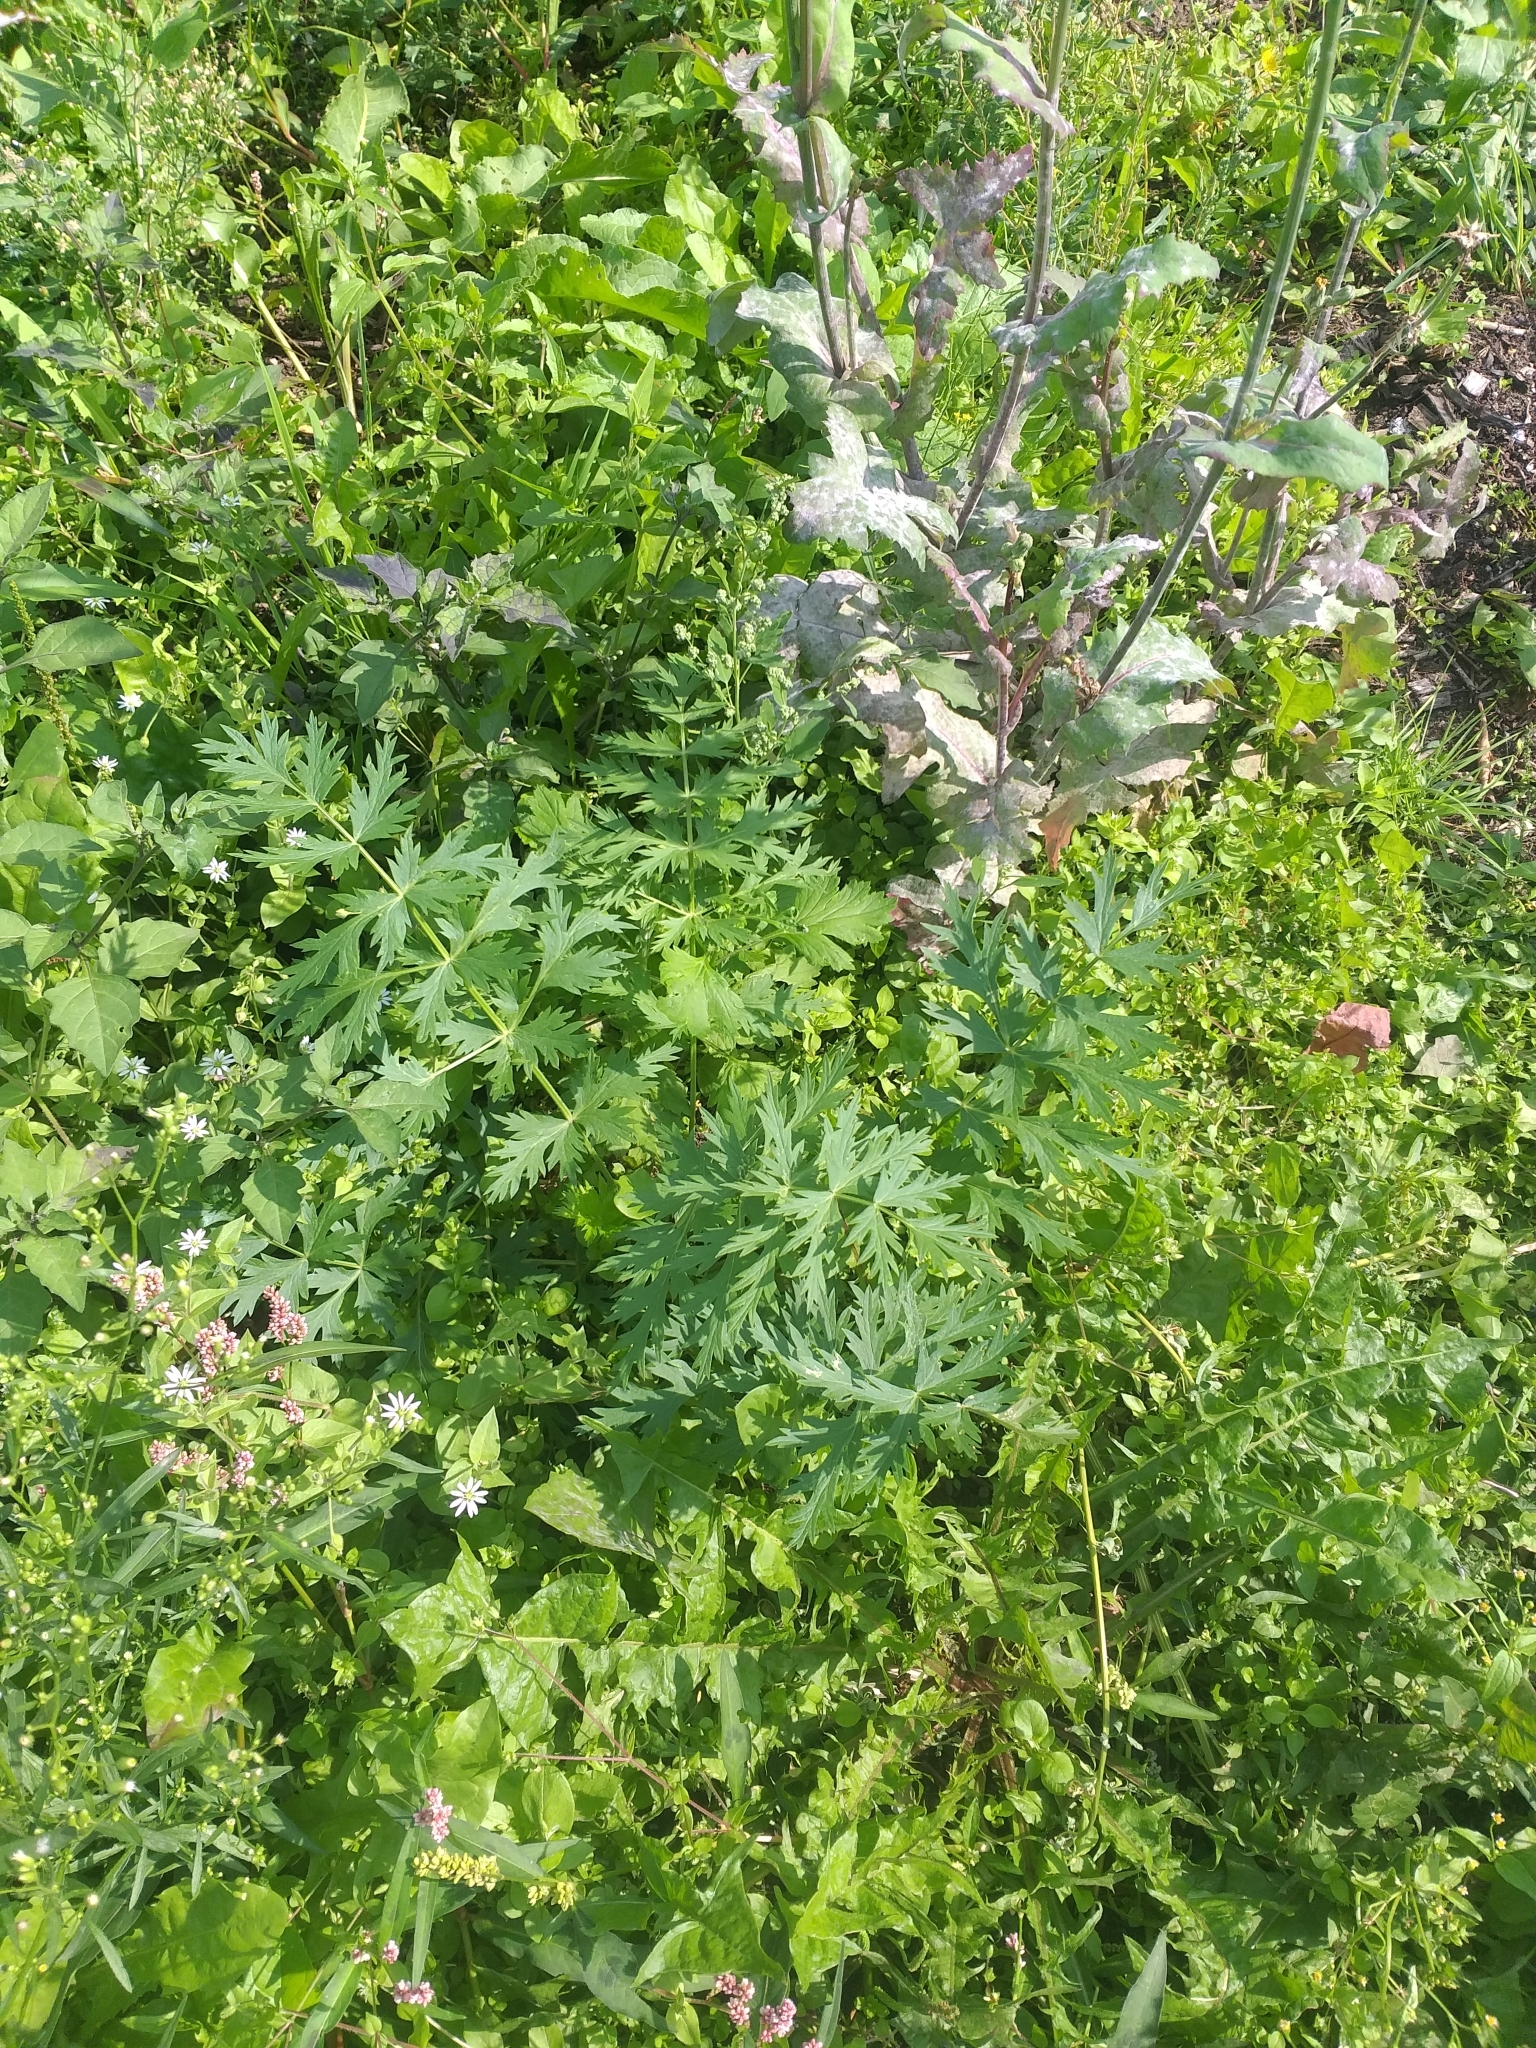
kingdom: Plantae
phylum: Tracheophyta
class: Magnoliopsida
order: Apiales
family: Apiaceae
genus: Seseli
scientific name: Seseli libanotis
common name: Mooncarrot
